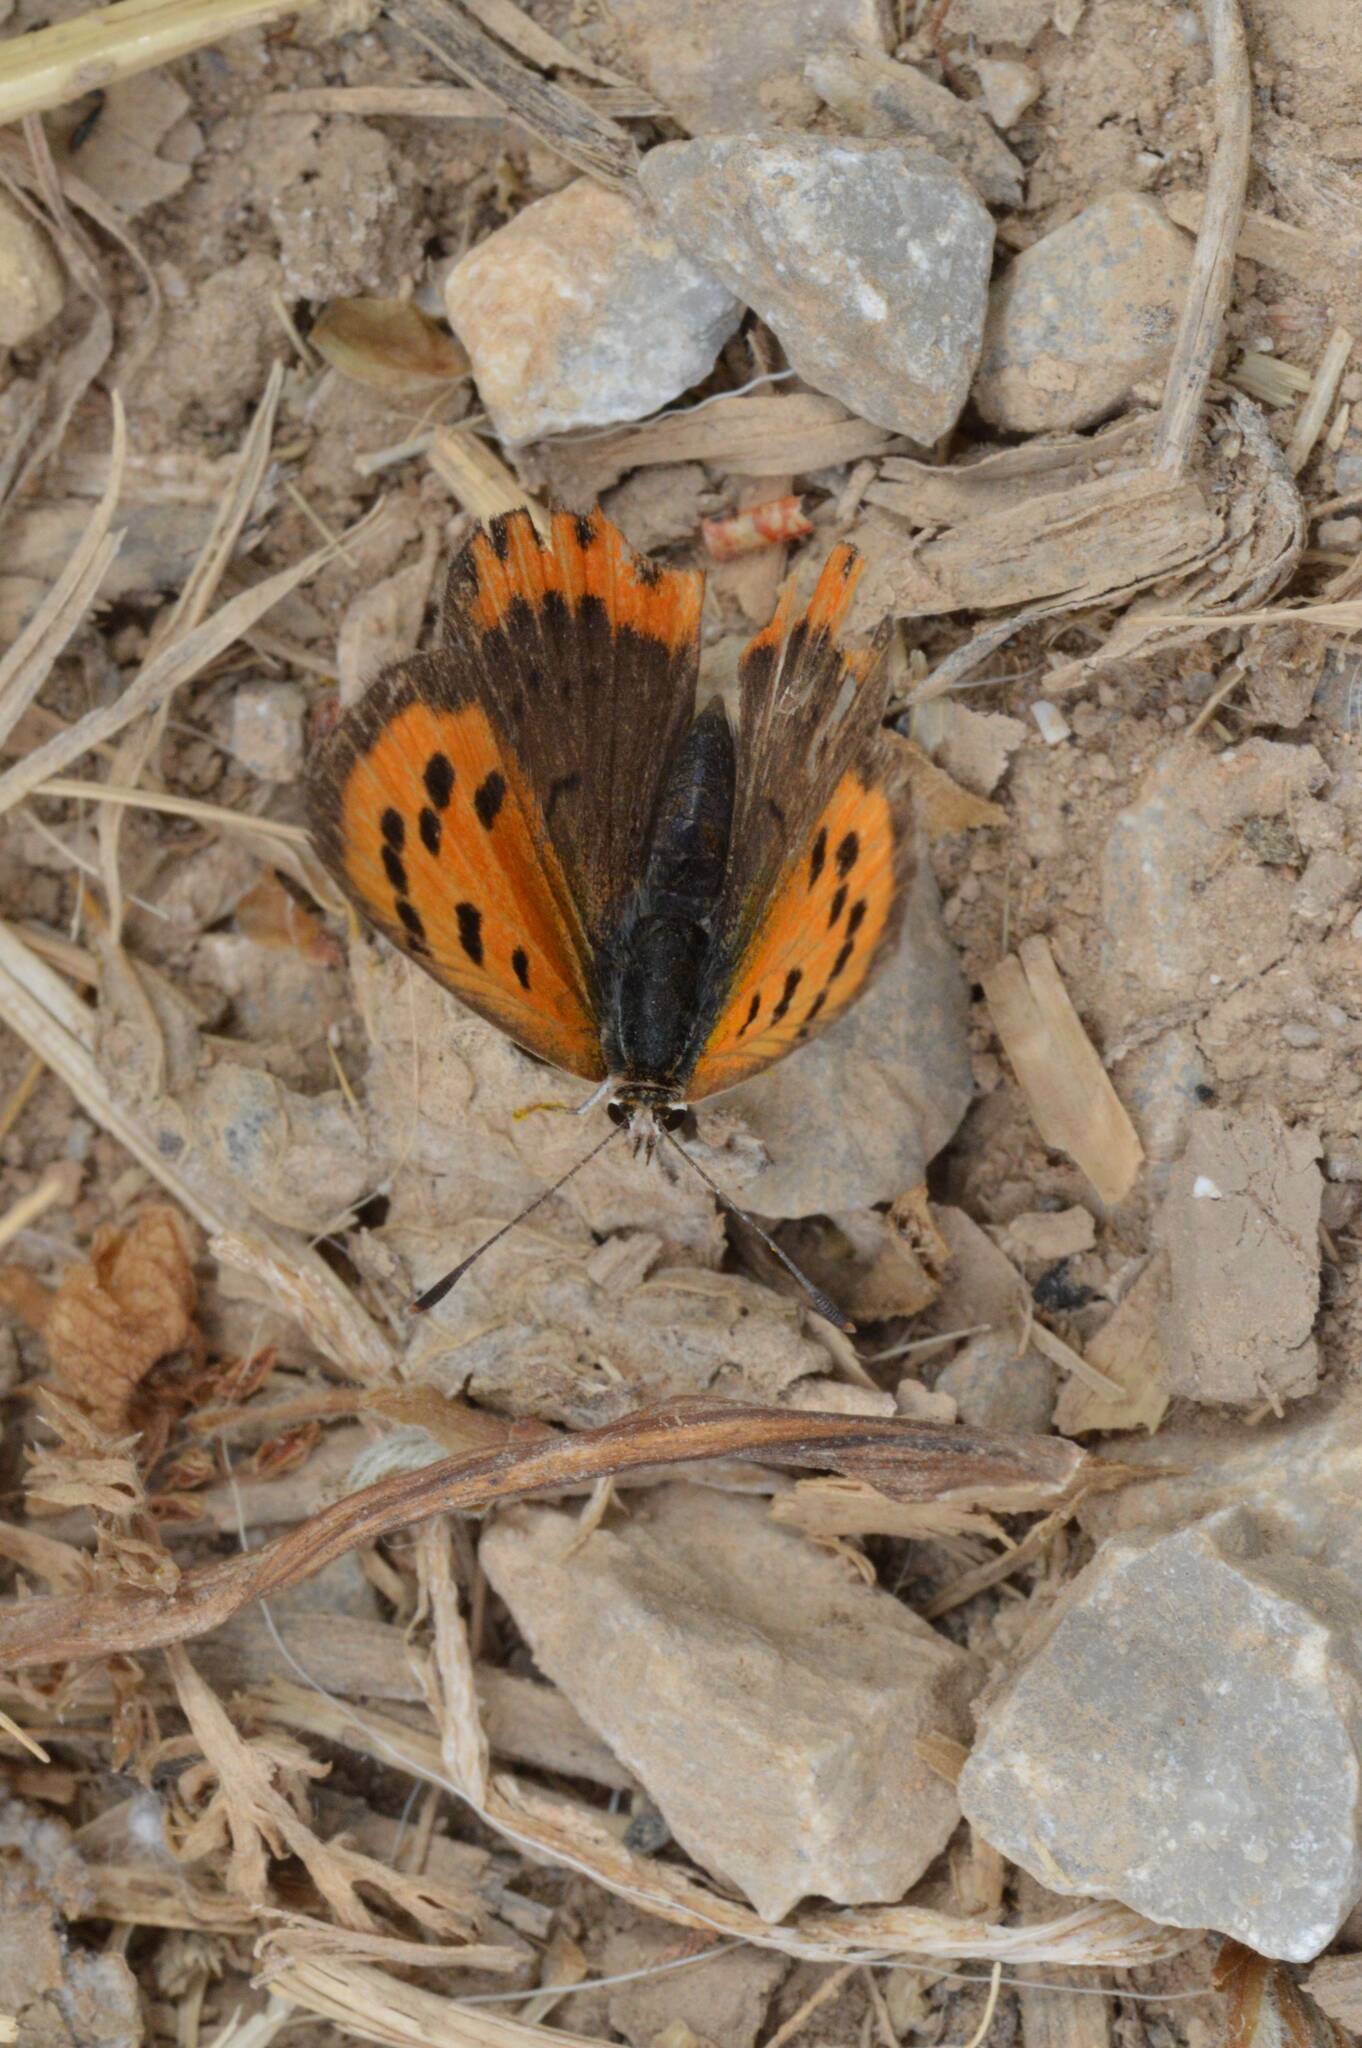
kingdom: Animalia
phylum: Arthropoda
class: Insecta
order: Lepidoptera
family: Lycaenidae
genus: Lycaena
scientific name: Lycaena phlaeas
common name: Small copper
